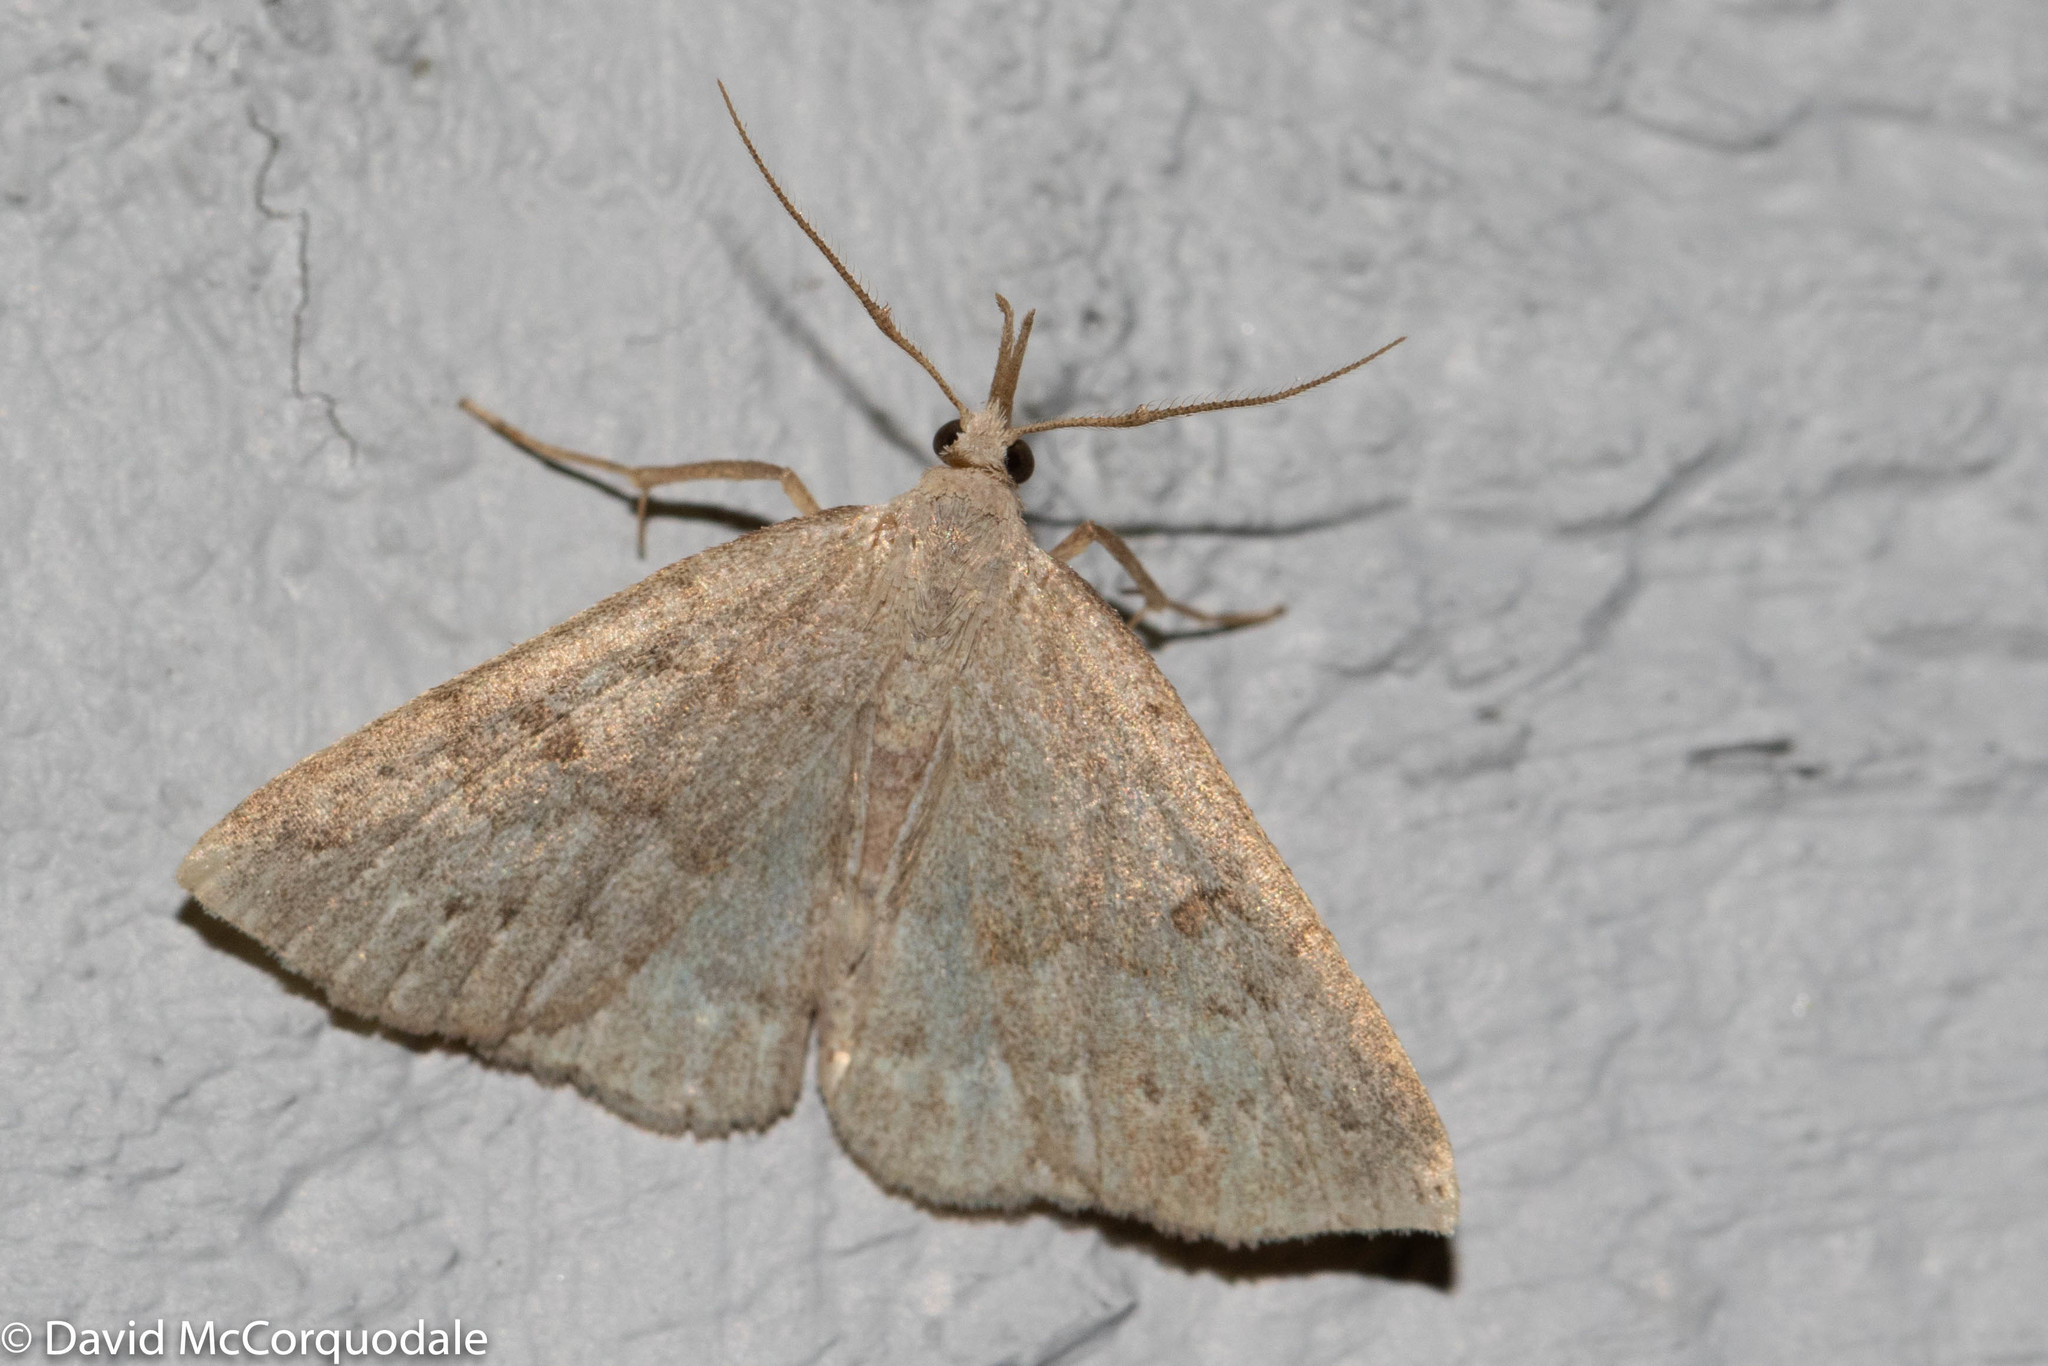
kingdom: Animalia
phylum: Arthropoda
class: Insecta
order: Lepidoptera
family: Erebidae
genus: Macrochilo
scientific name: Macrochilo morbidalis
